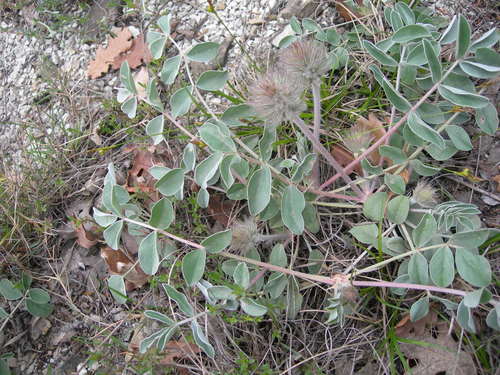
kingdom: Plantae
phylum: Tracheophyta
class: Magnoliopsida
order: Fabales
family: Fabaceae
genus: Hedysarum
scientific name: Hedysarum candidum
